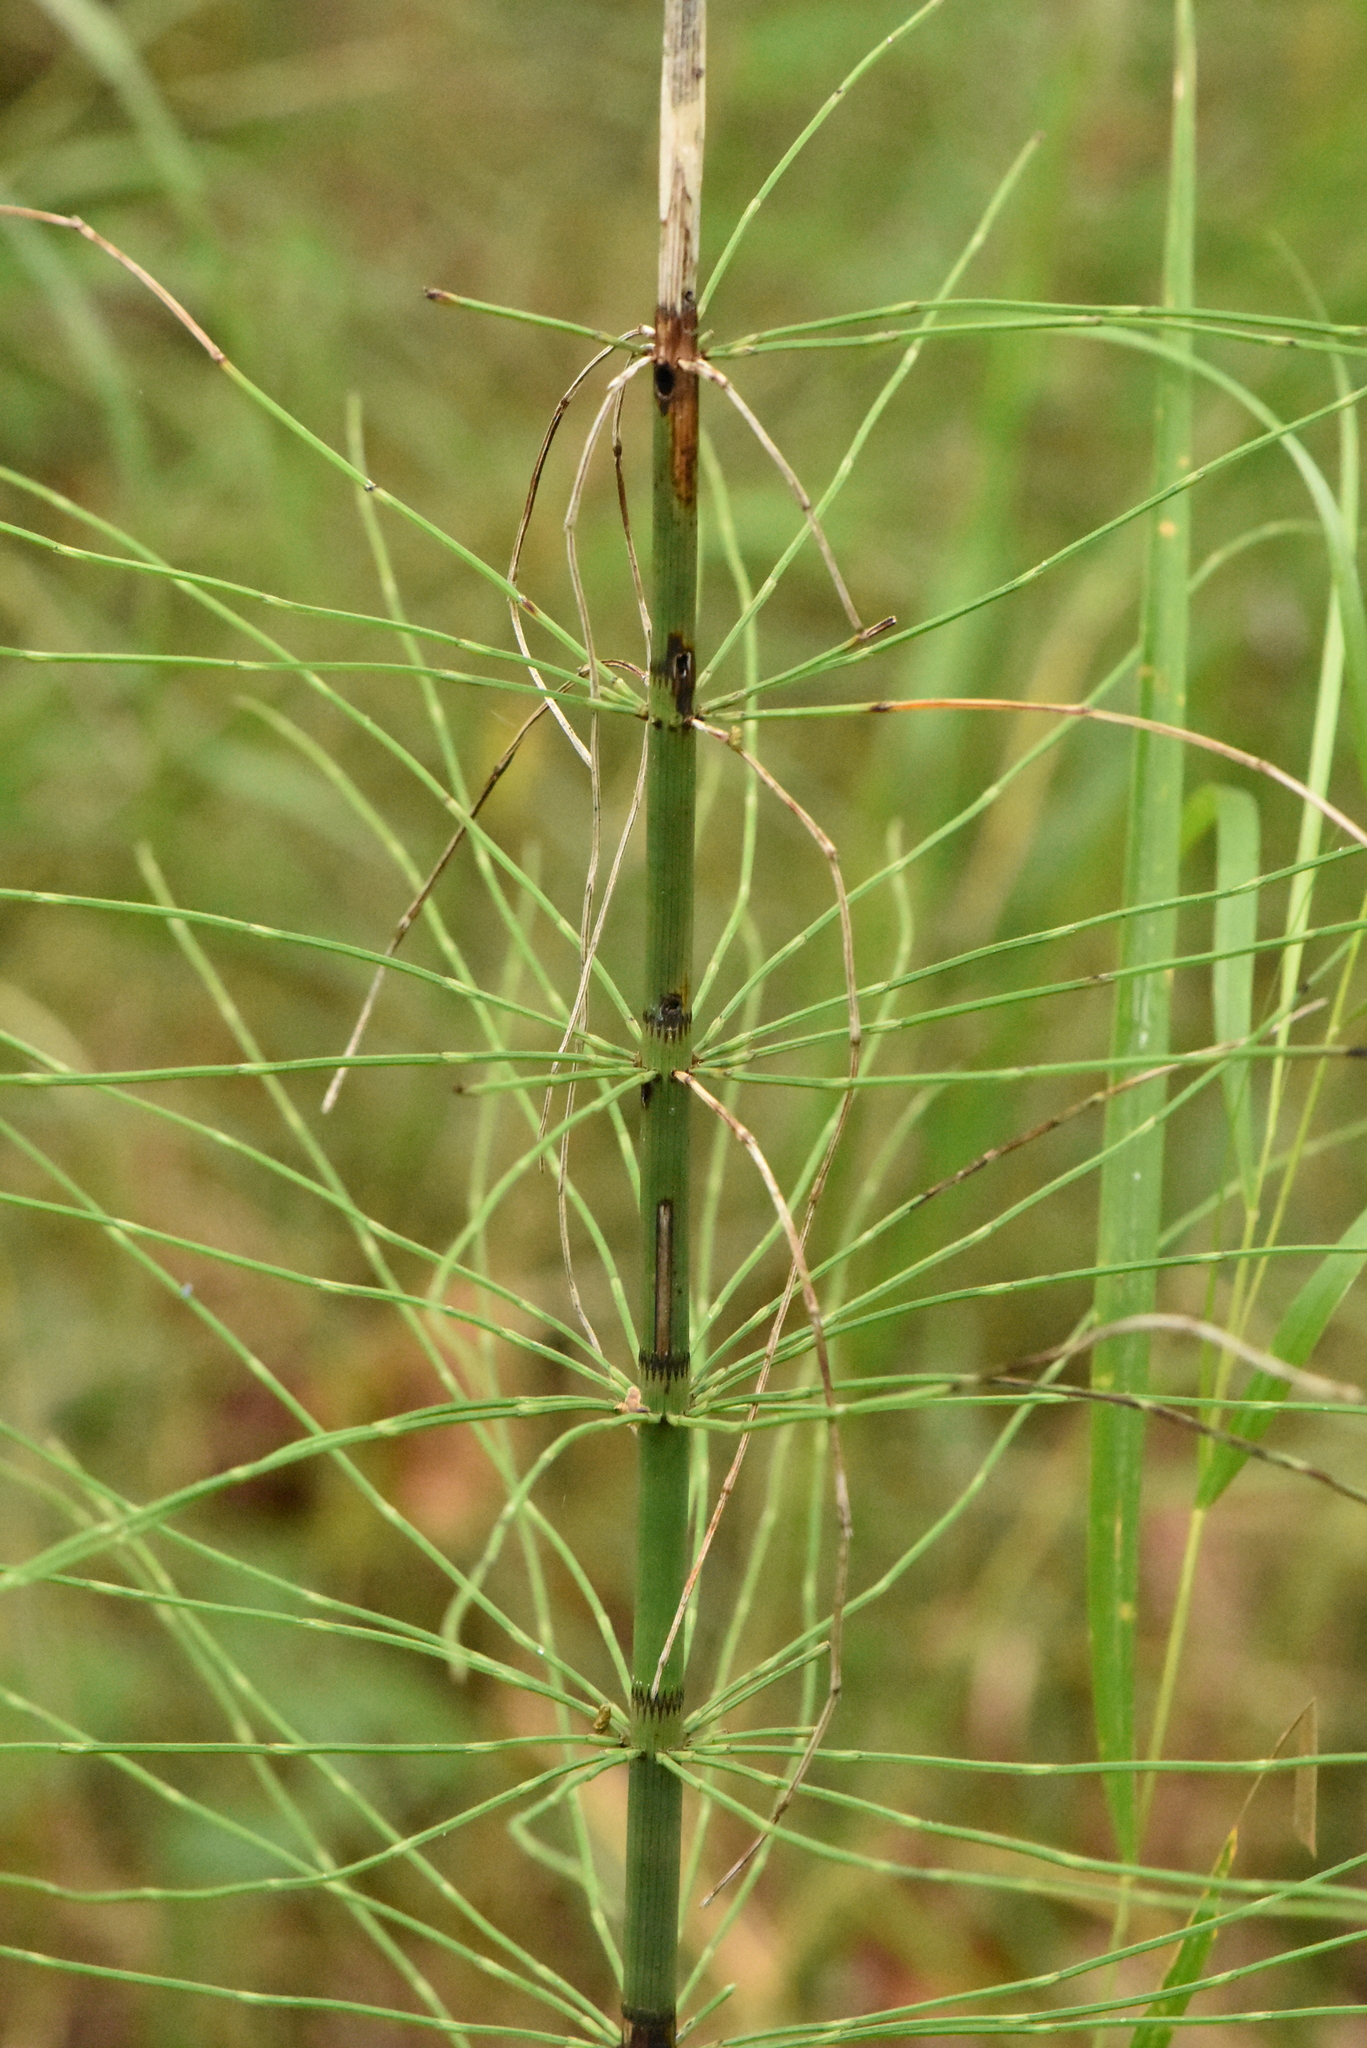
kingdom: Plantae
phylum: Tracheophyta
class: Polypodiopsida
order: Equisetales
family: Equisetaceae
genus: Equisetum
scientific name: Equisetum fluviatile
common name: Water horsetail
